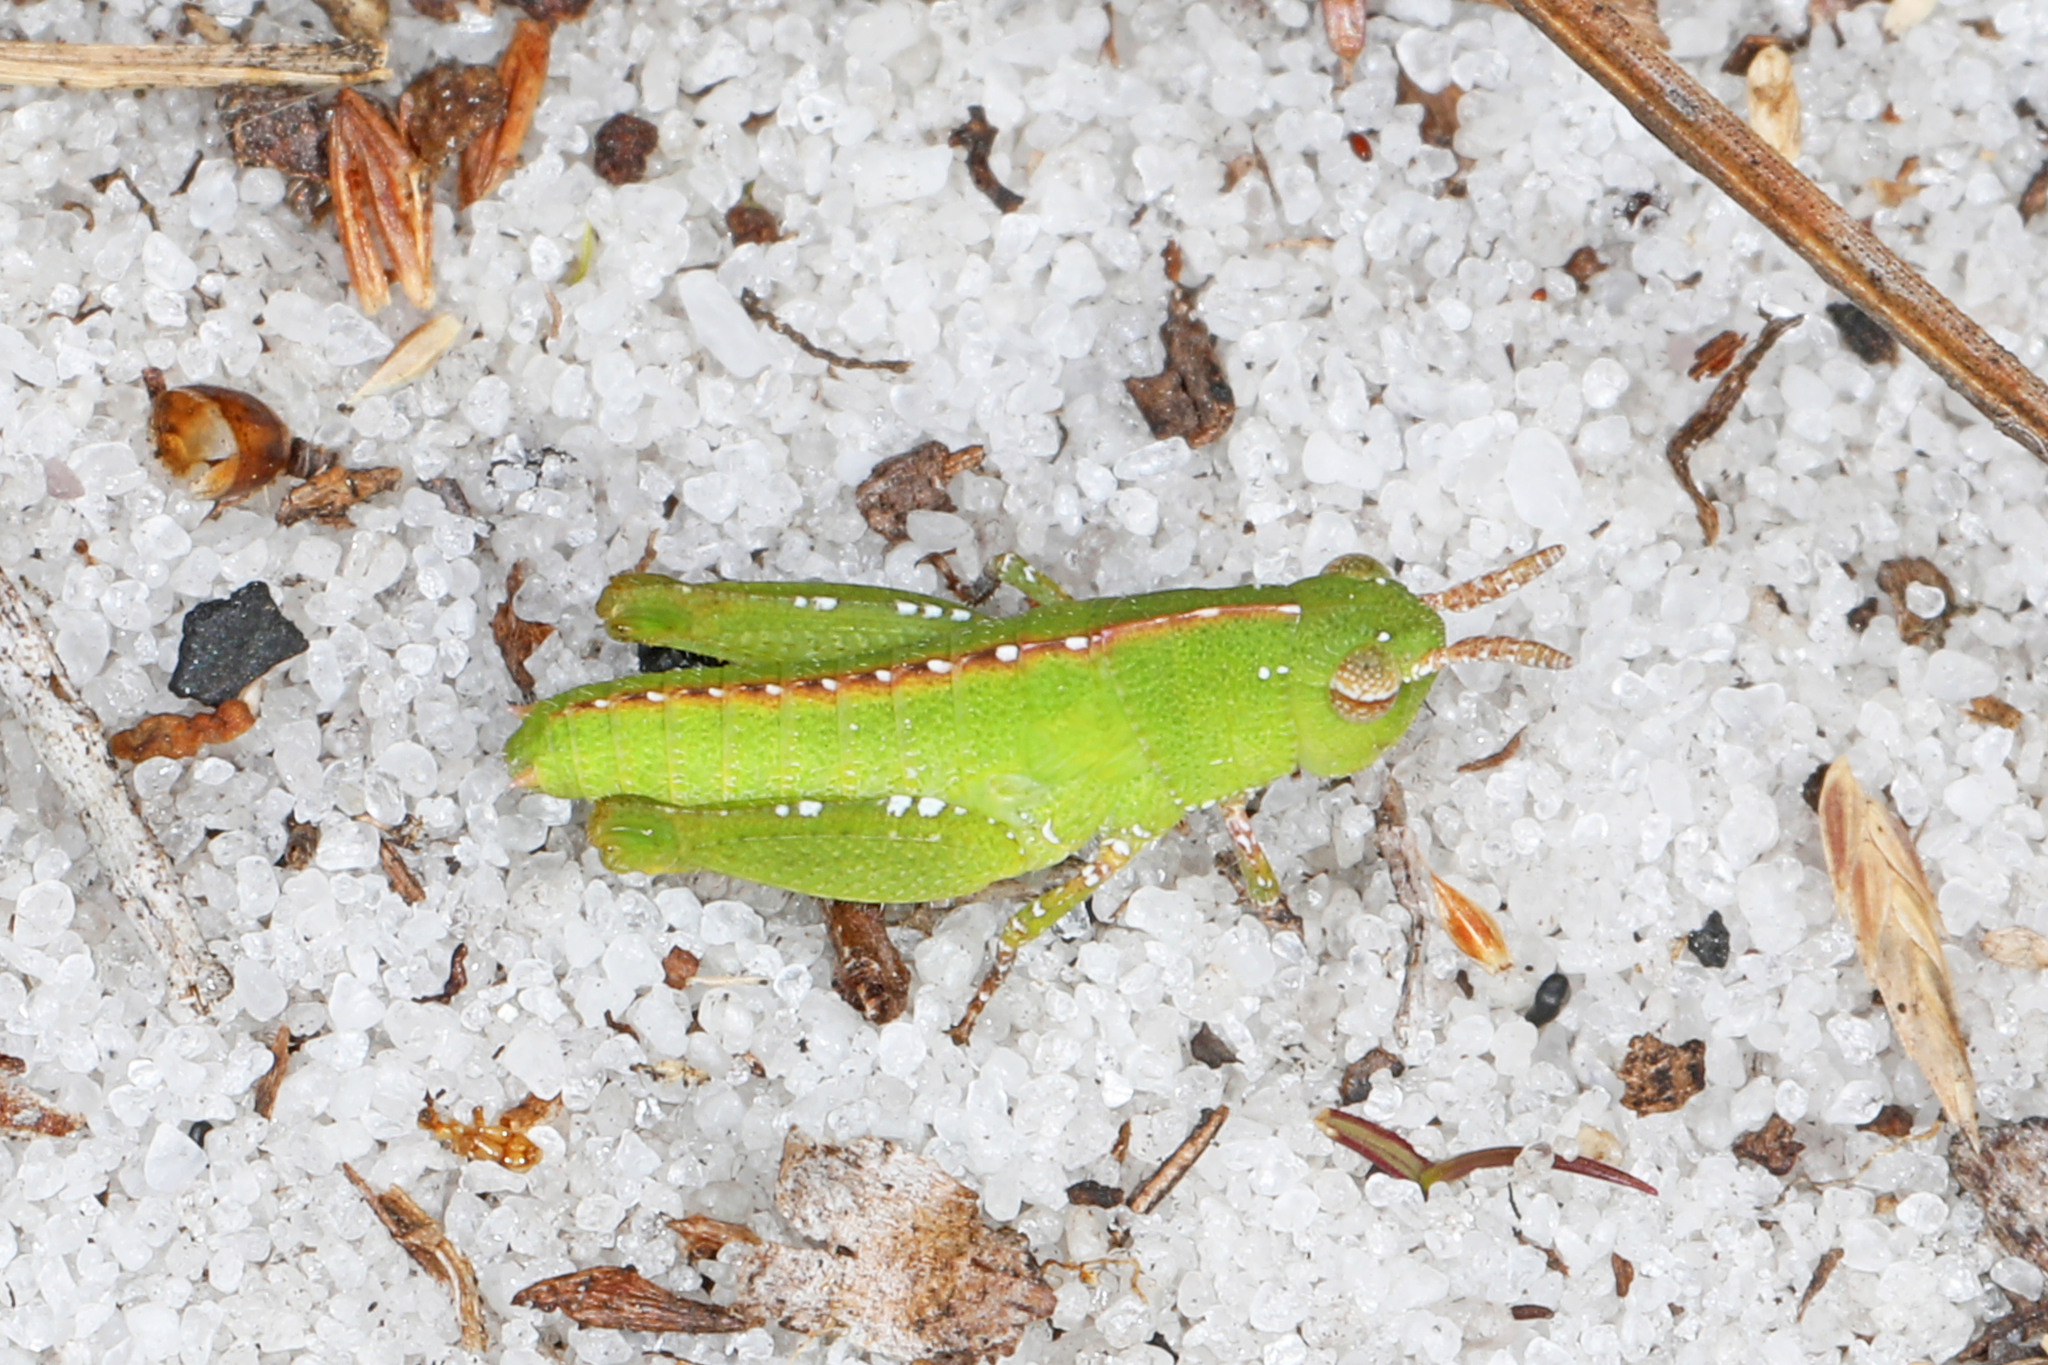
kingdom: Animalia
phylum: Arthropoda
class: Insecta
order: Orthoptera
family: Acrididae
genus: Chortophaga
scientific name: Chortophaga australior
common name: Southern green-striped grasshopper
